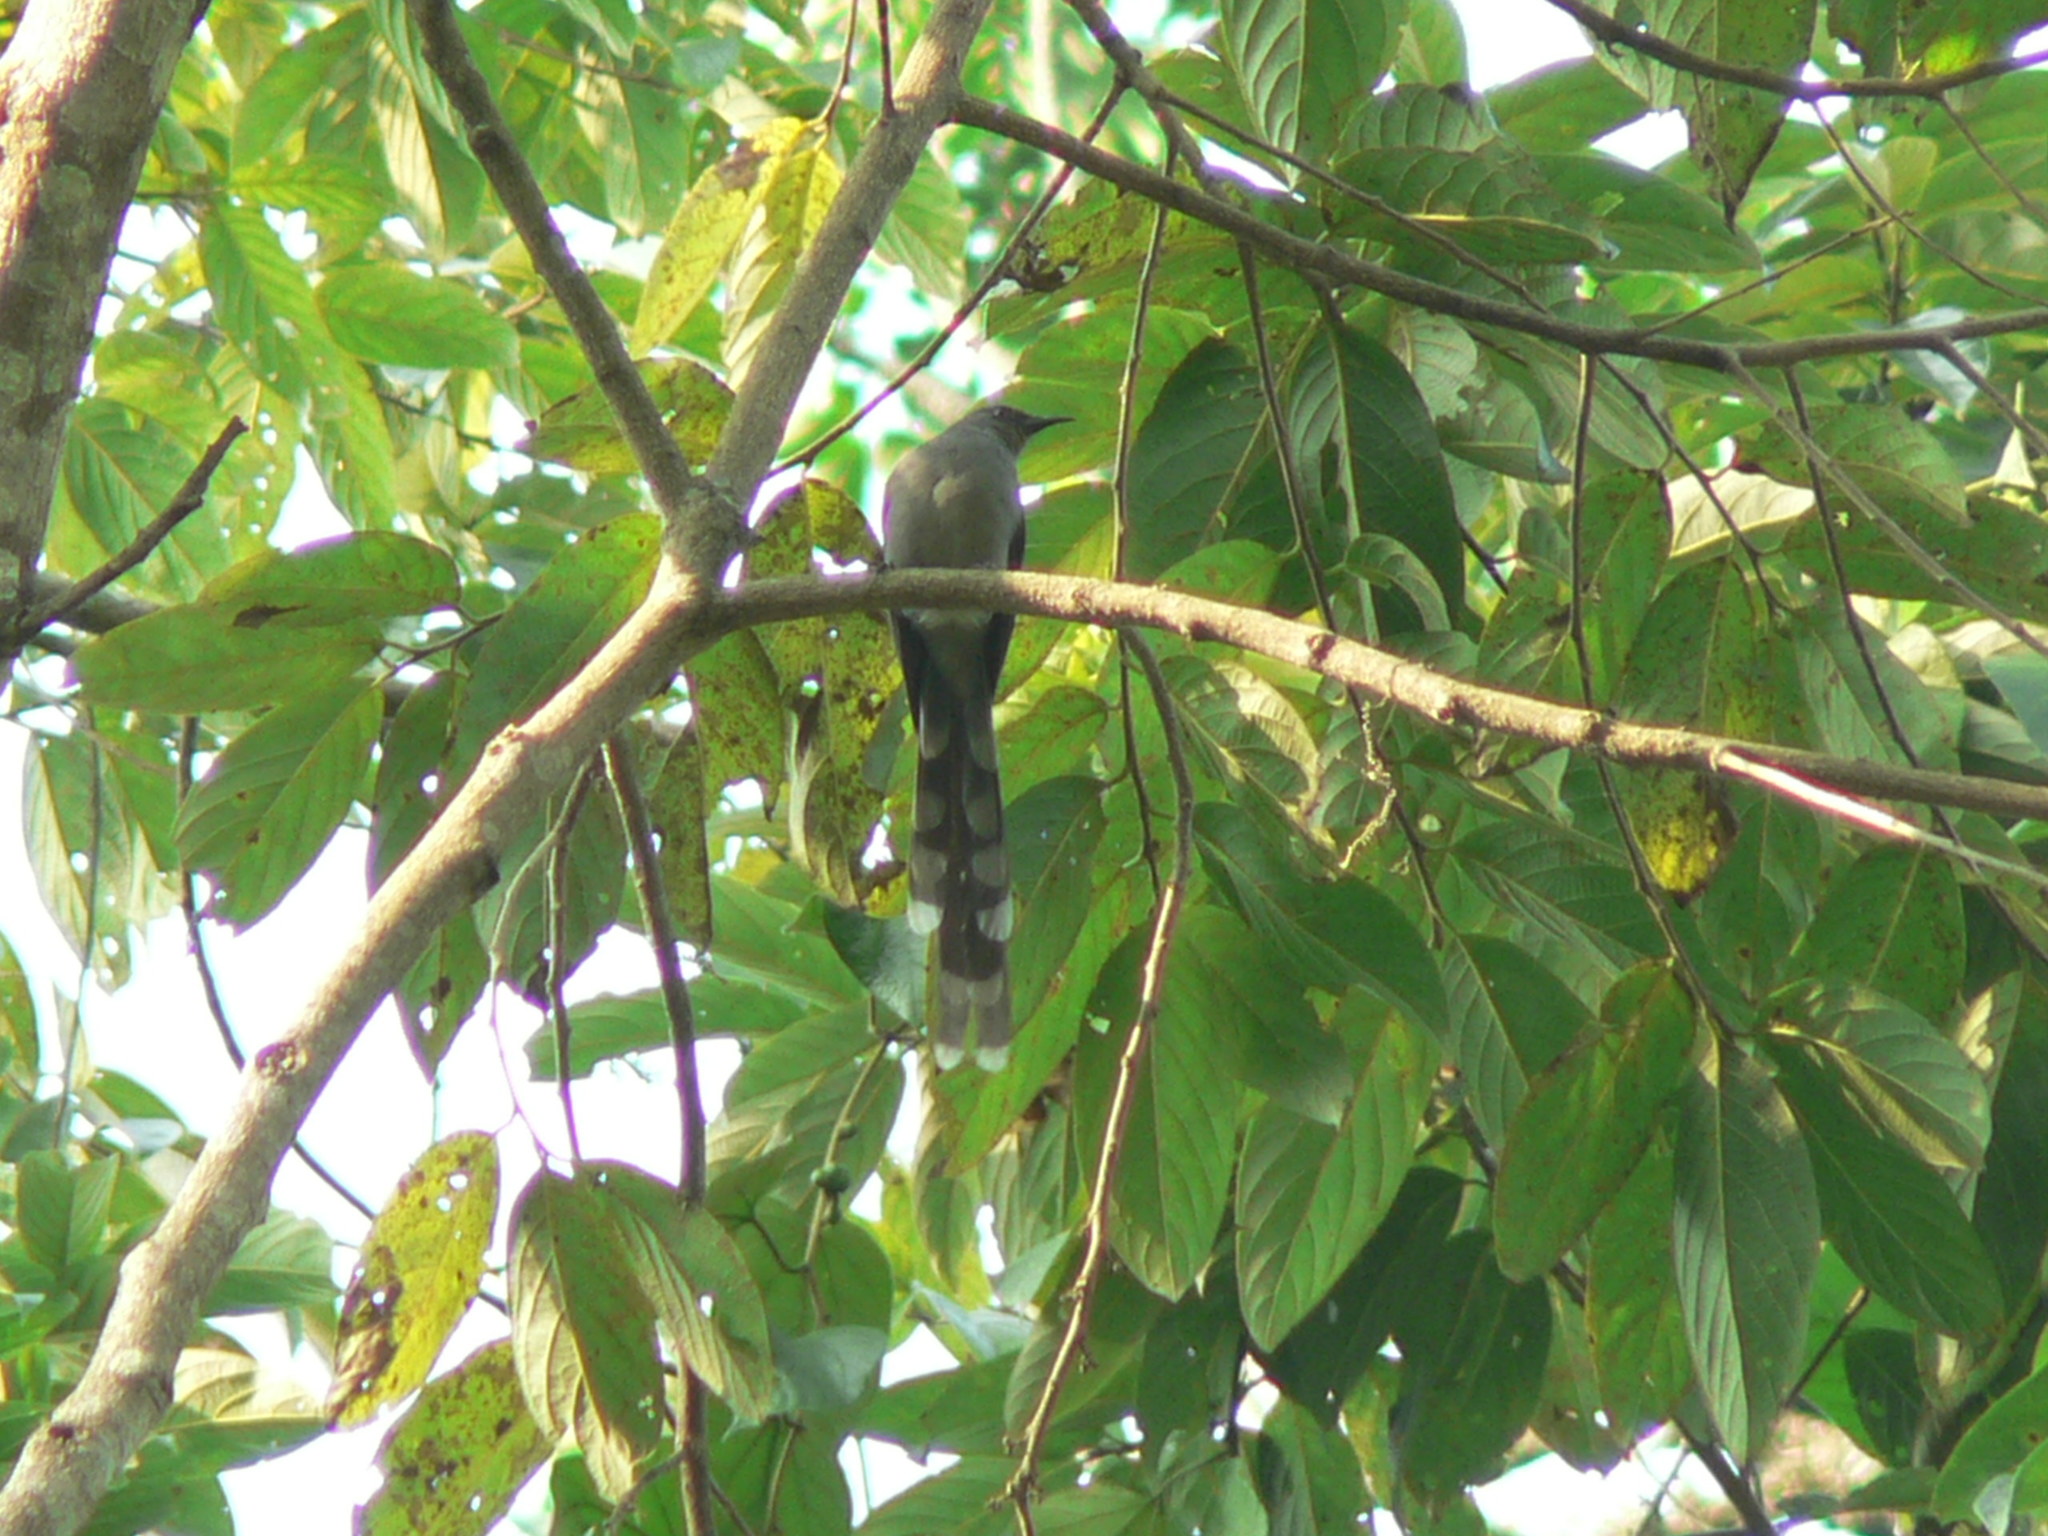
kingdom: Animalia
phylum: Chordata
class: Aves
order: Passeriformes
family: Leiothrichidae
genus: Heterophasia
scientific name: Heterophasia picaoides
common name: Long-tailed sibia
